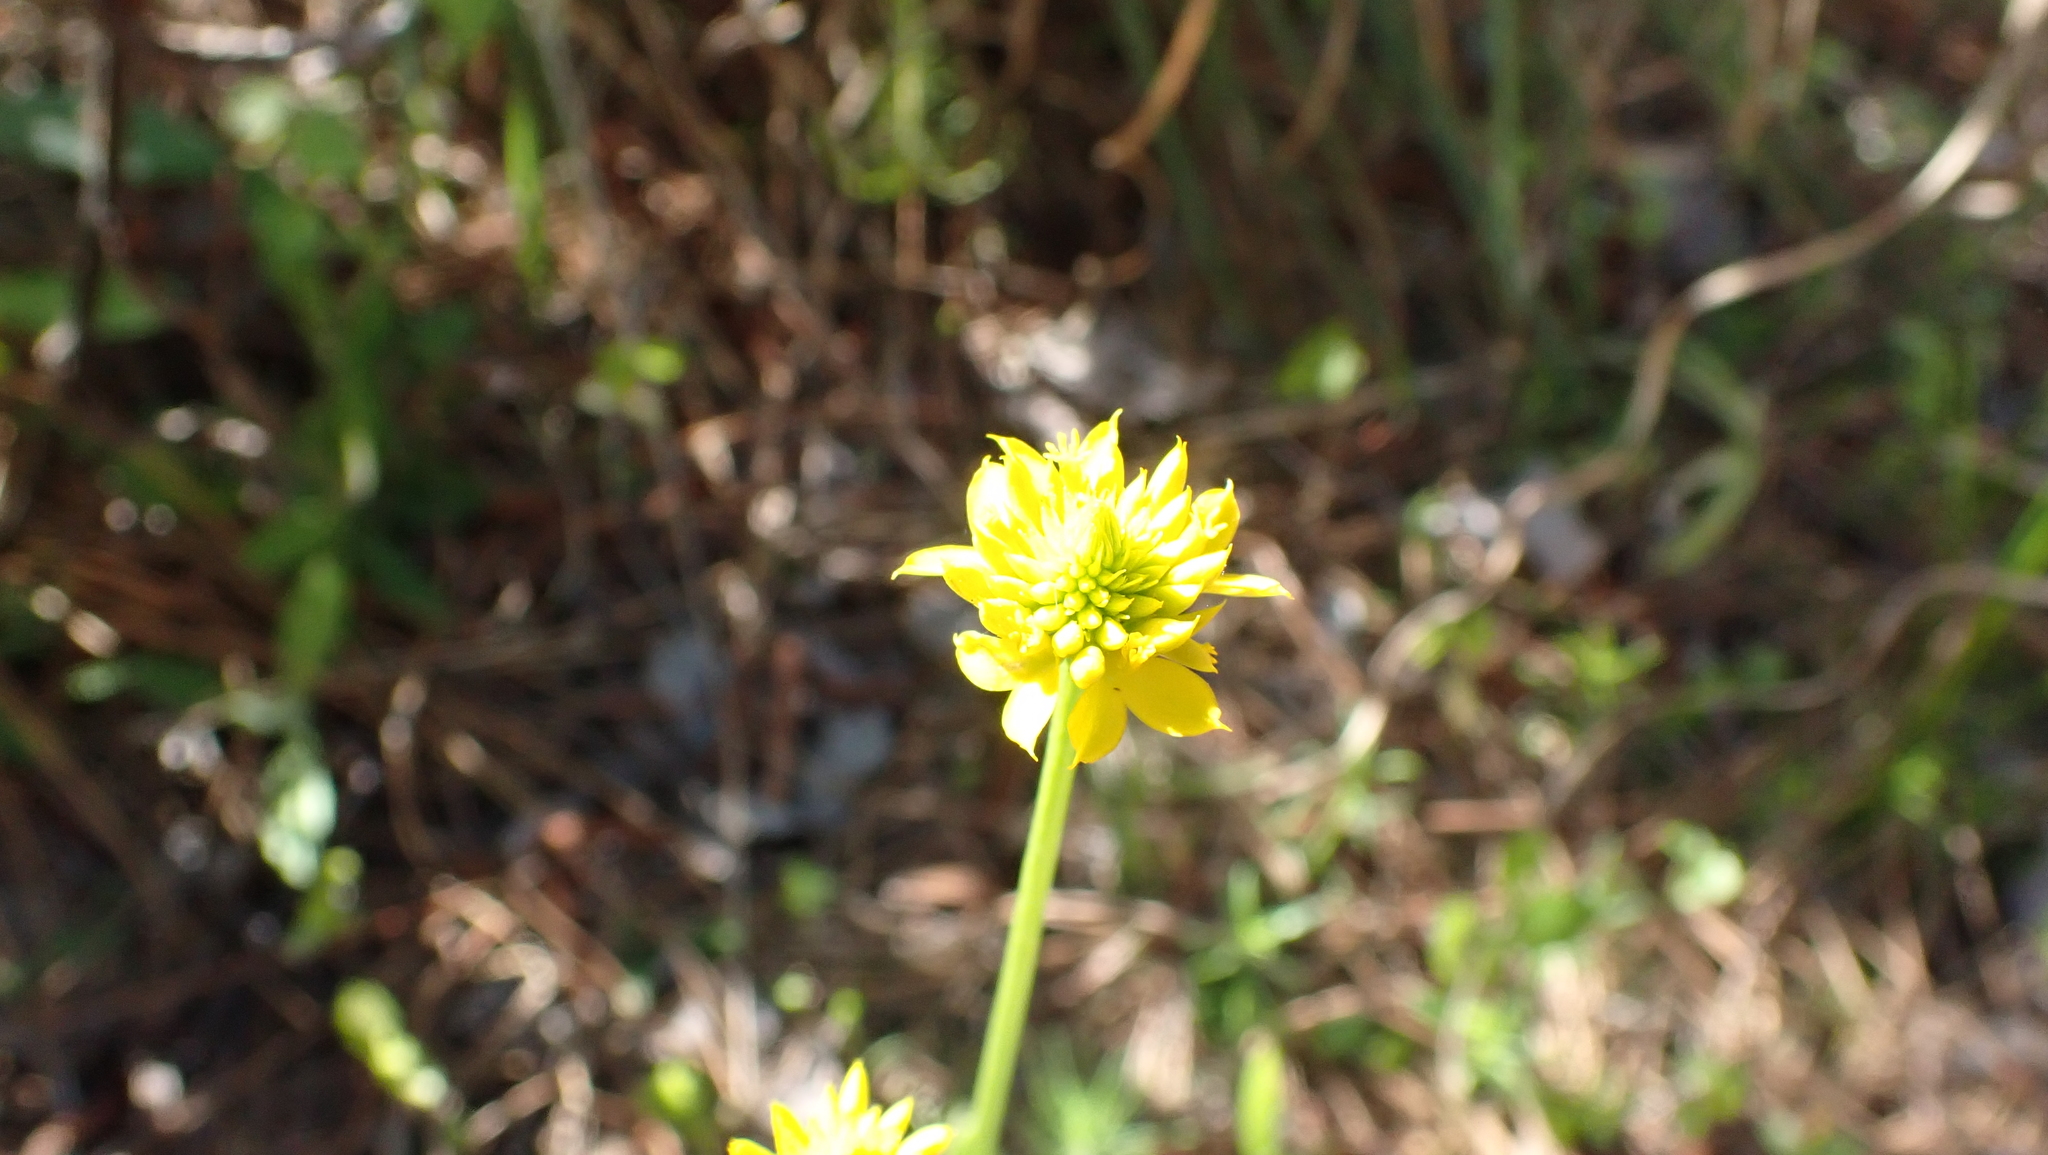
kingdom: Plantae
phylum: Tracheophyta
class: Magnoliopsida
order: Fabales
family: Polygalaceae
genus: Polygala
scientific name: Polygala rugelii
